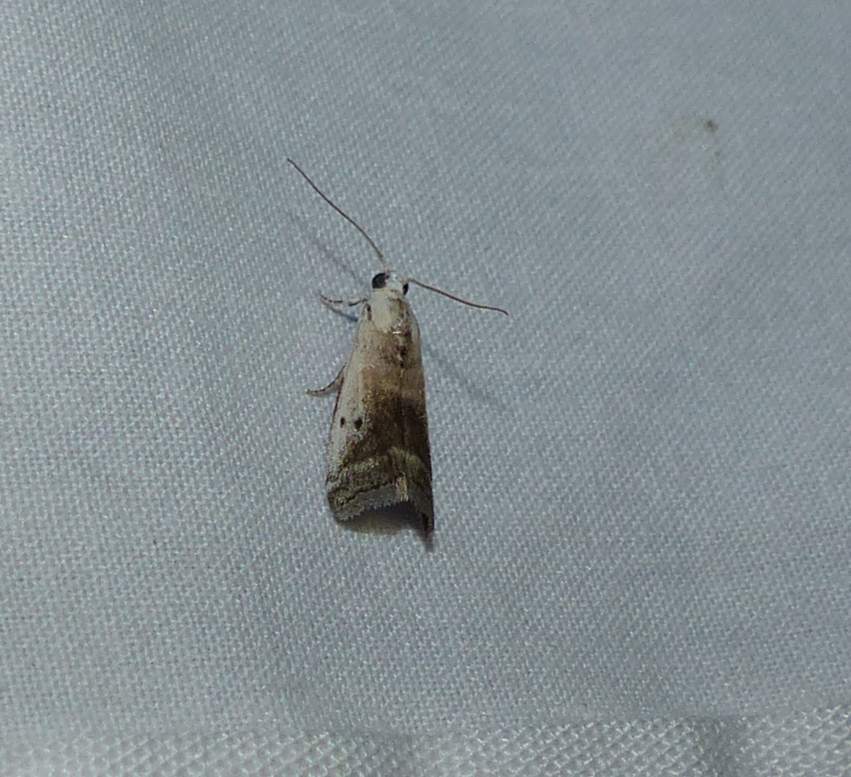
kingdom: Animalia
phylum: Arthropoda
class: Insecta
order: Lepidoptera
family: Pyralidae
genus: Acrobasis
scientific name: Acrobasis caryivorella
